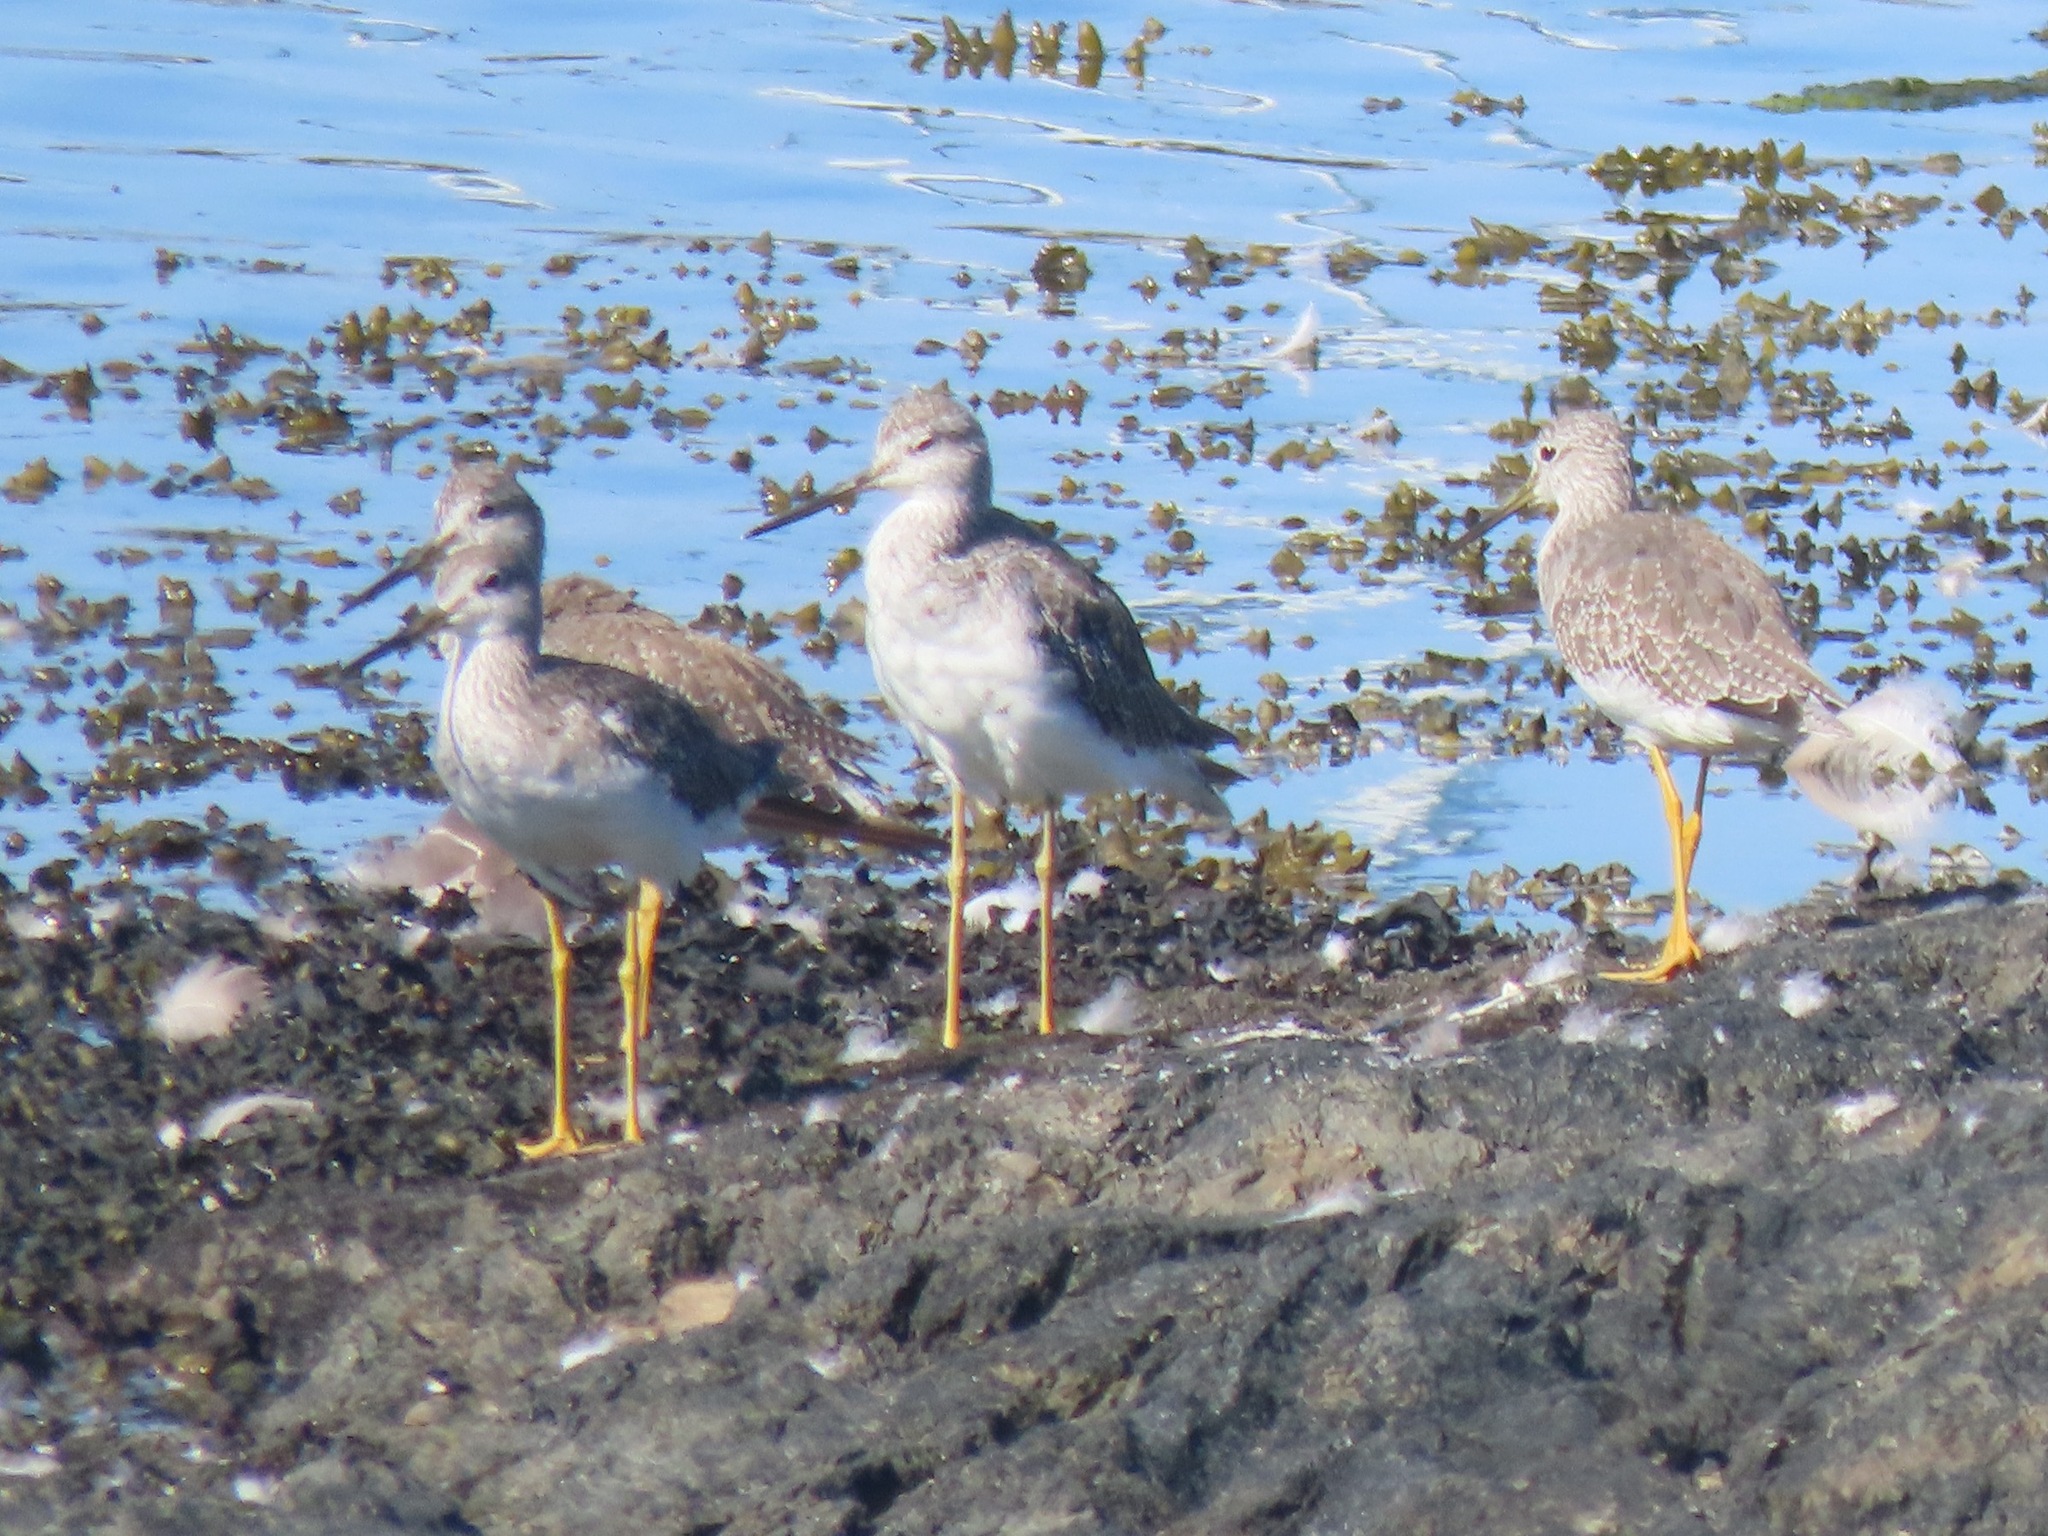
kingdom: Animalia
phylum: Chordata
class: Aves
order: Charadriiformes
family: Scolopacidae
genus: Tringa
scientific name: Tringa melanoleuca
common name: Greater yellowlegs
